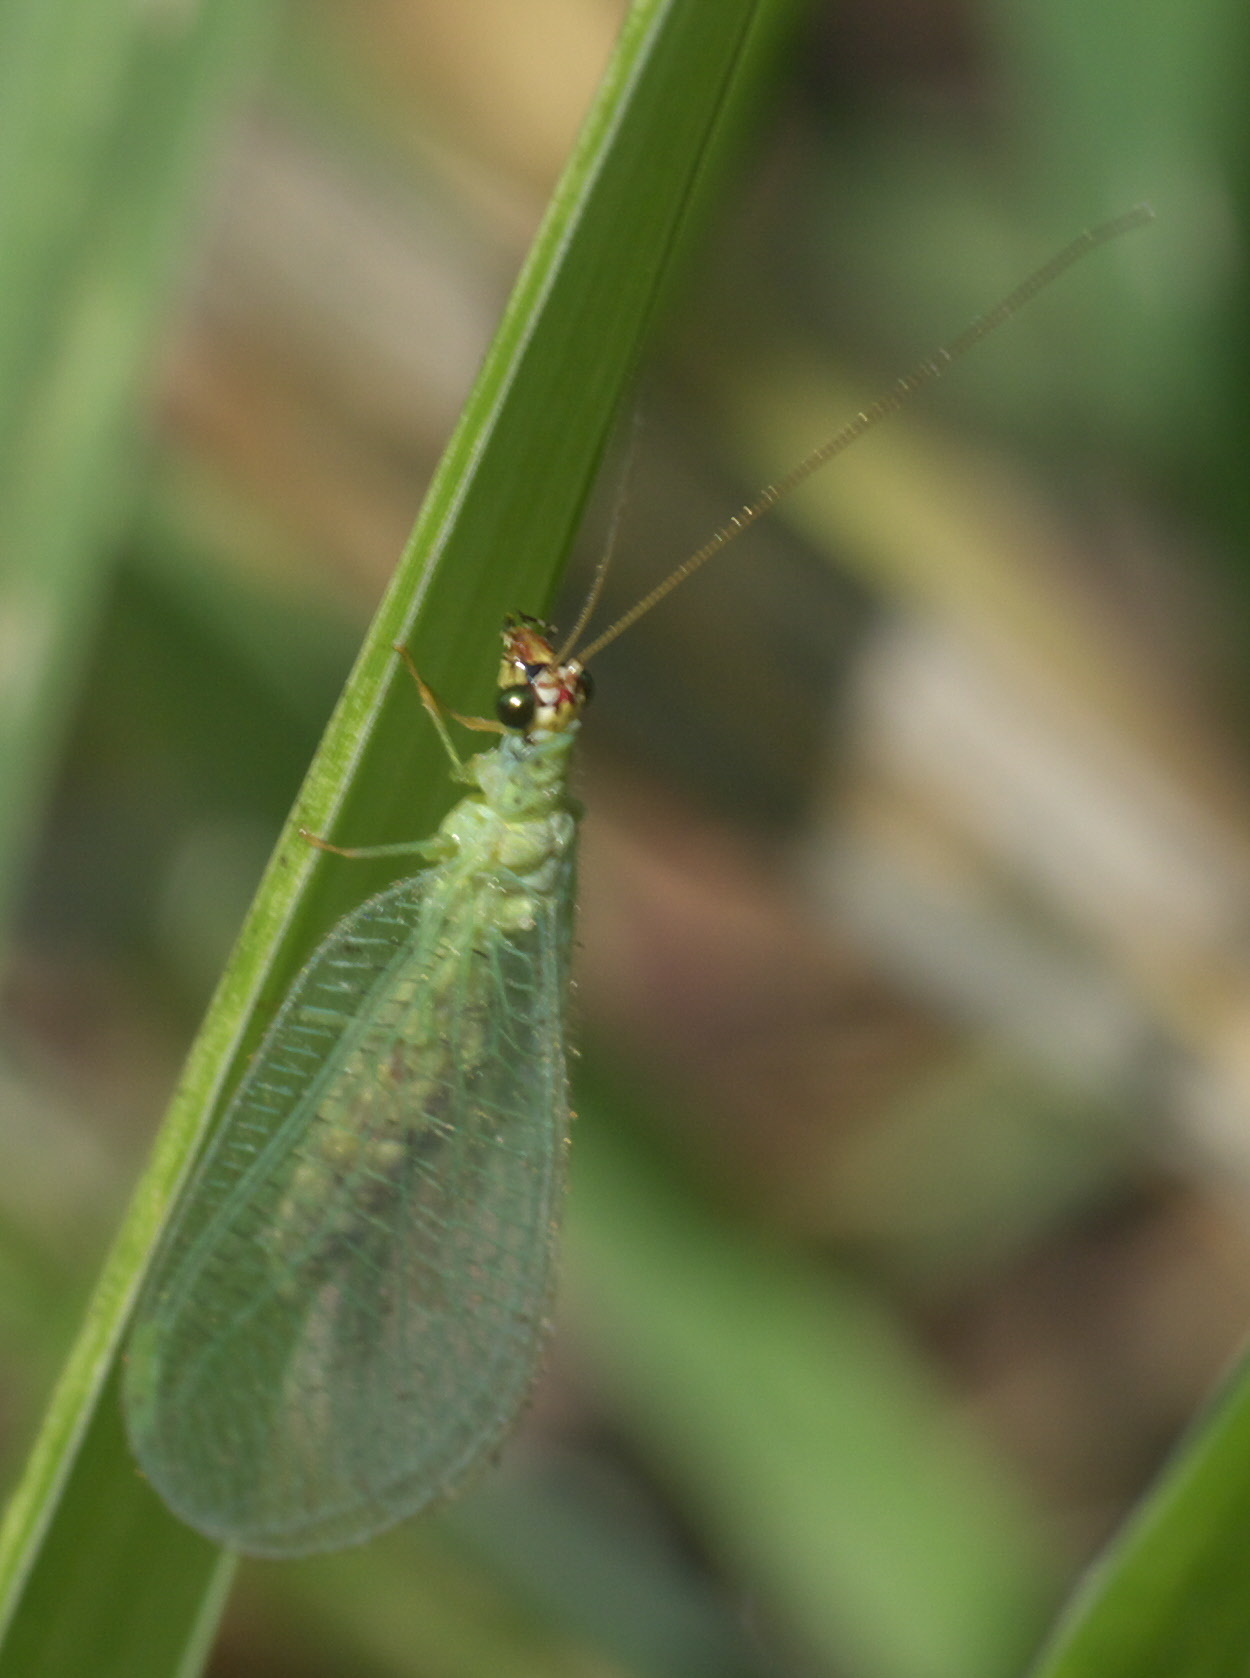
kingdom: Animalia
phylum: Arthropoda
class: Insecta
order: Neuroptera
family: Chrysopidae
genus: Chrysopa
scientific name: Chrysopa oculata
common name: Golden-eyed lacewing
